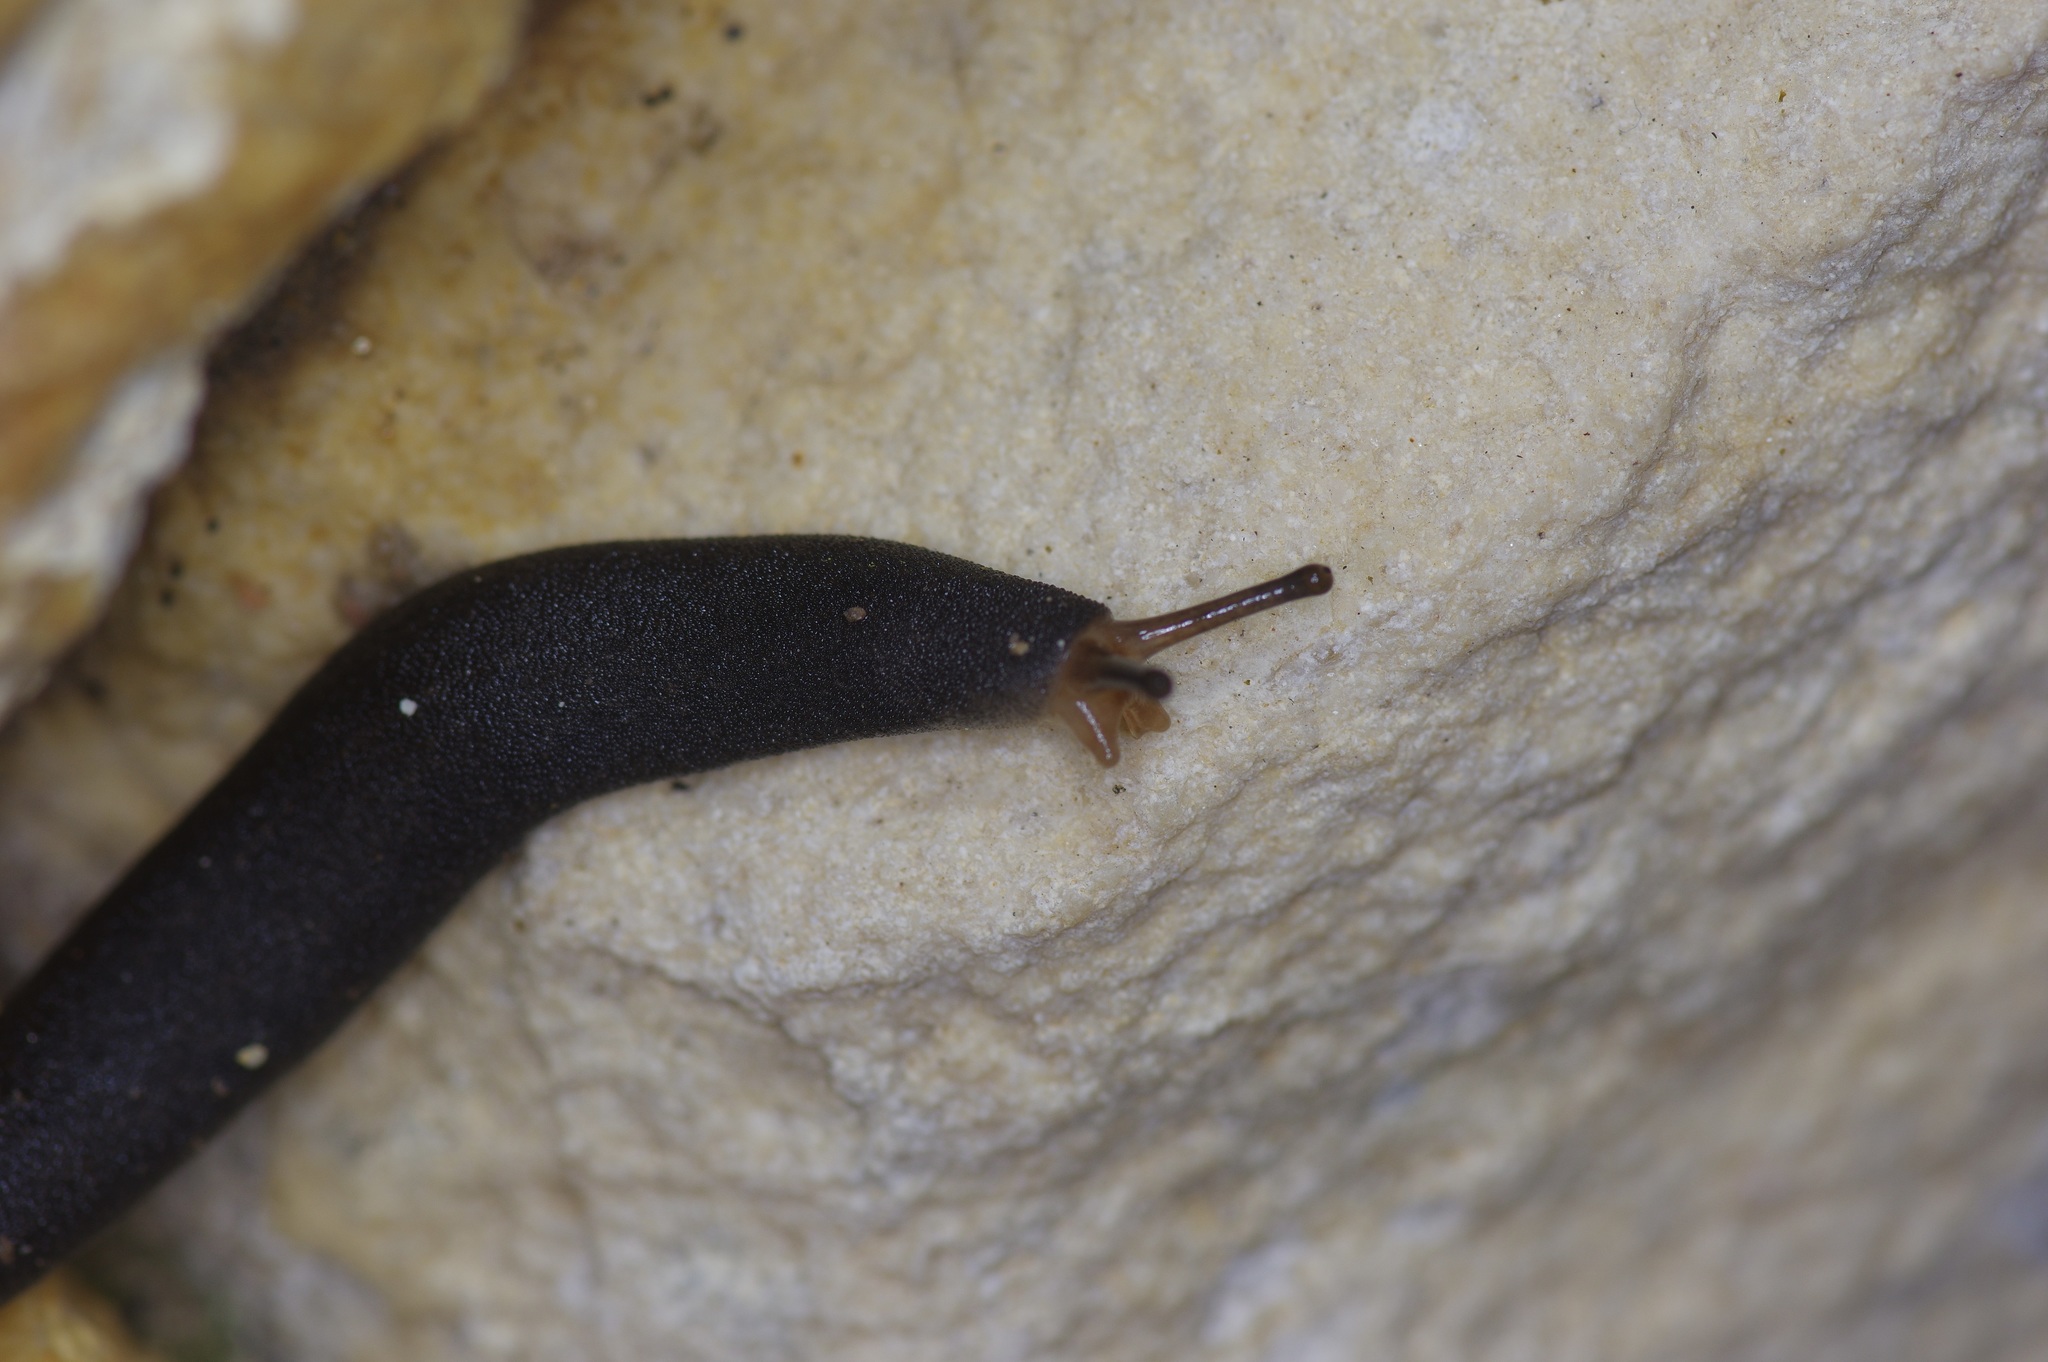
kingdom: Animalia
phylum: Mollusca
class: Gastropoda
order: Systellommatophora
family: Veronicellidae
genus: Belocaulus
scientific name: Belocaulus angustipes
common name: Black velvet leatherleaf slug
